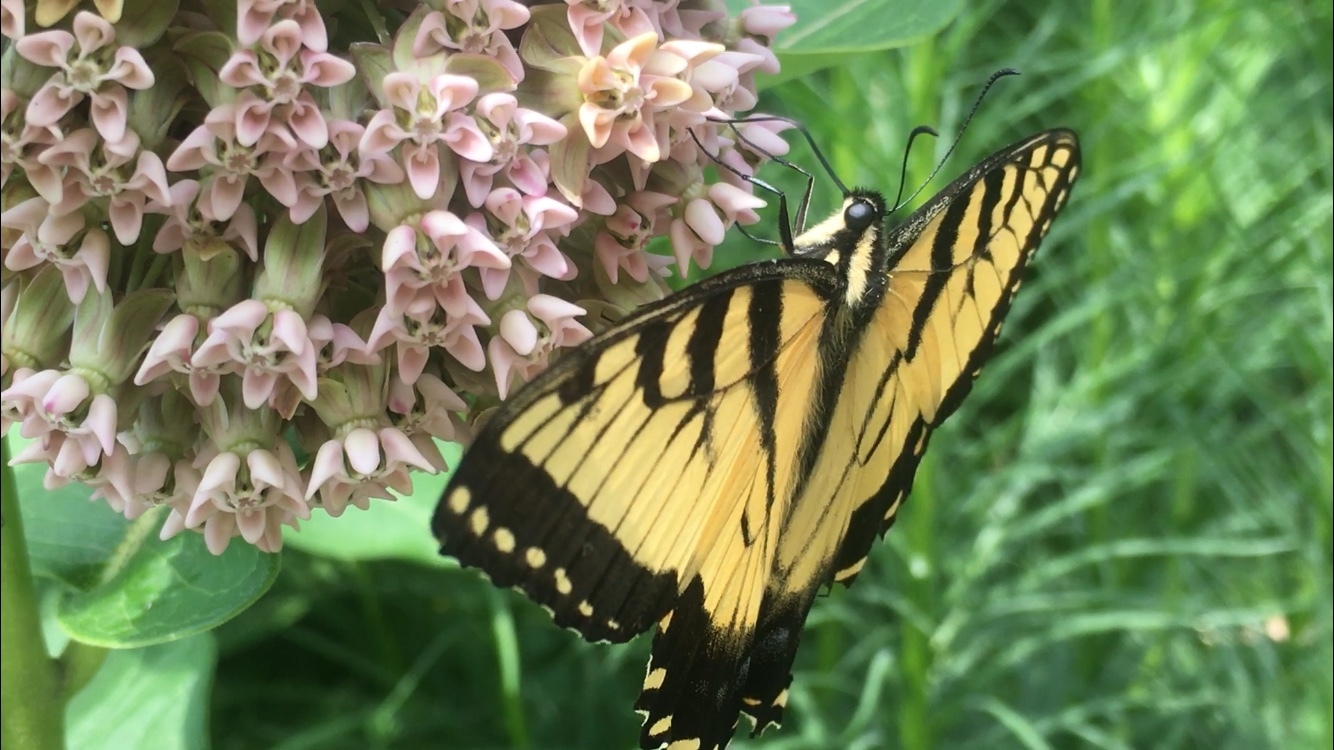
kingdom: Animalia
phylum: Arthropoda
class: Insecta
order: Lepidoptera
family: Papilionidae
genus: Papilio
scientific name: Papilio glaucus
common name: Tiger swallowtail
